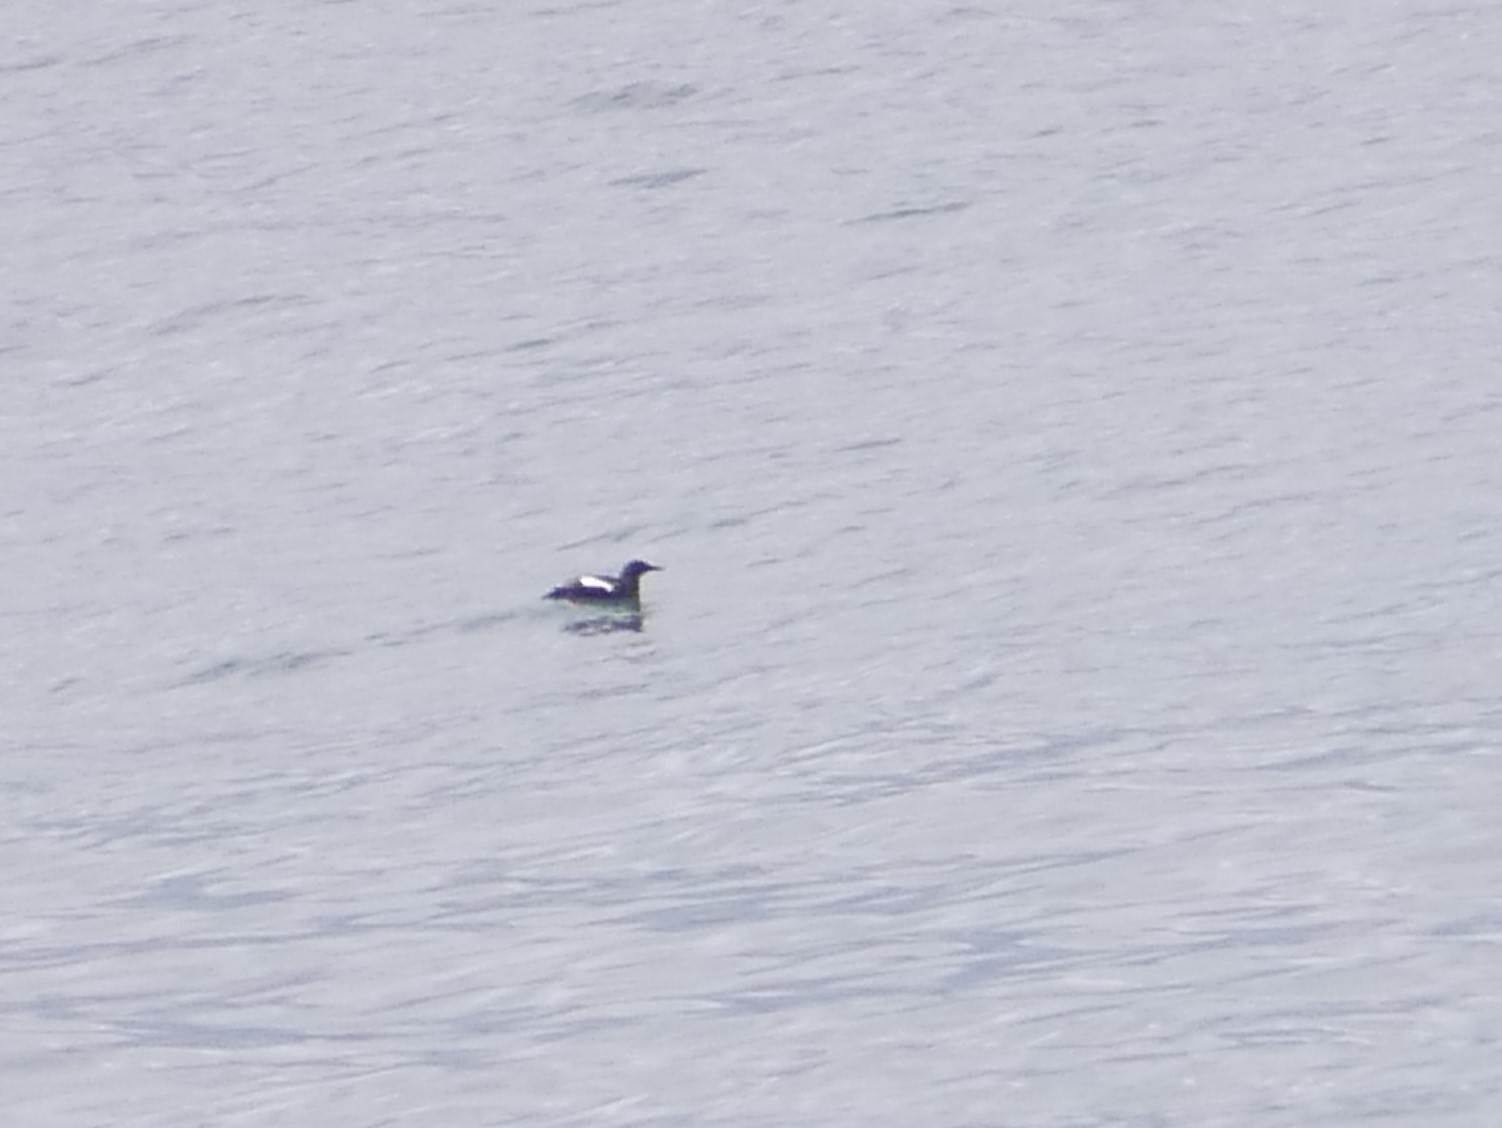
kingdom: Animalia
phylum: Chordata
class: Aves
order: Charadriiformes
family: Alcidae
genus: Cepphus
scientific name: Cepphus grylle
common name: Black guillemot
